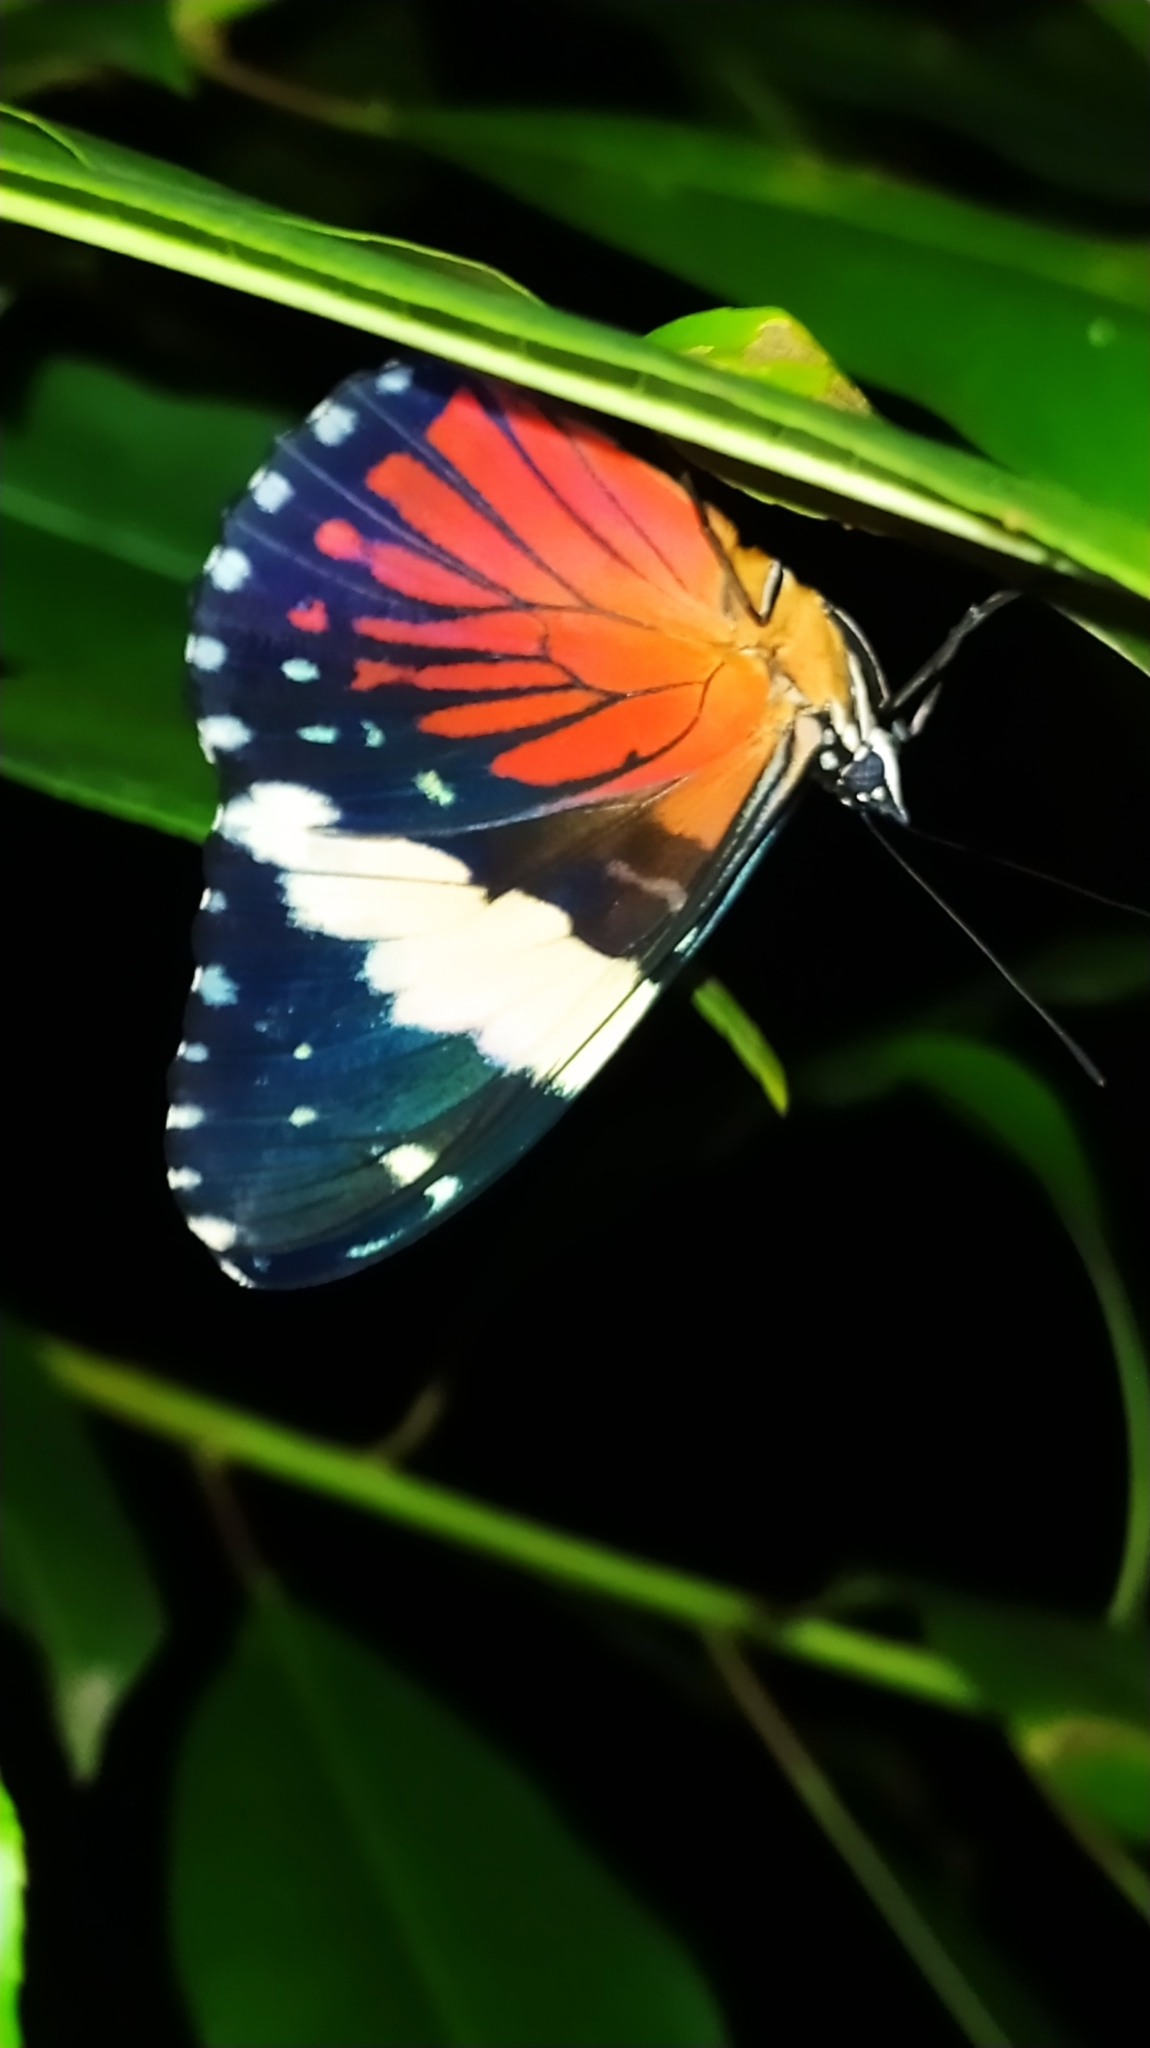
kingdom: Animalia
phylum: Arthropoda
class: Insecta
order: Lepidoptera
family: Nymphalidae
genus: Hamadryas
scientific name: Hamadryas amphinome
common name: Red cracker
